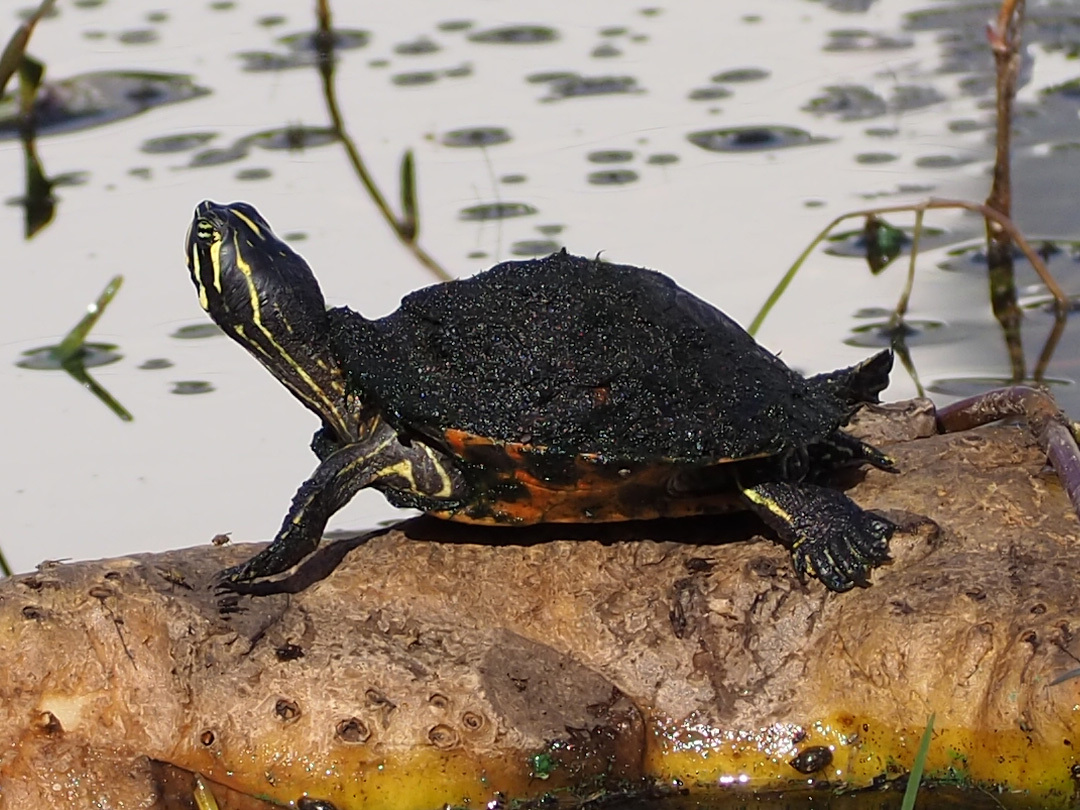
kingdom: Animalia
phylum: Chordata
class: Testudines
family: Emydidae
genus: Pseudemys
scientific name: Pseudemys nelsoni
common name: Florida red-bellied turtle
